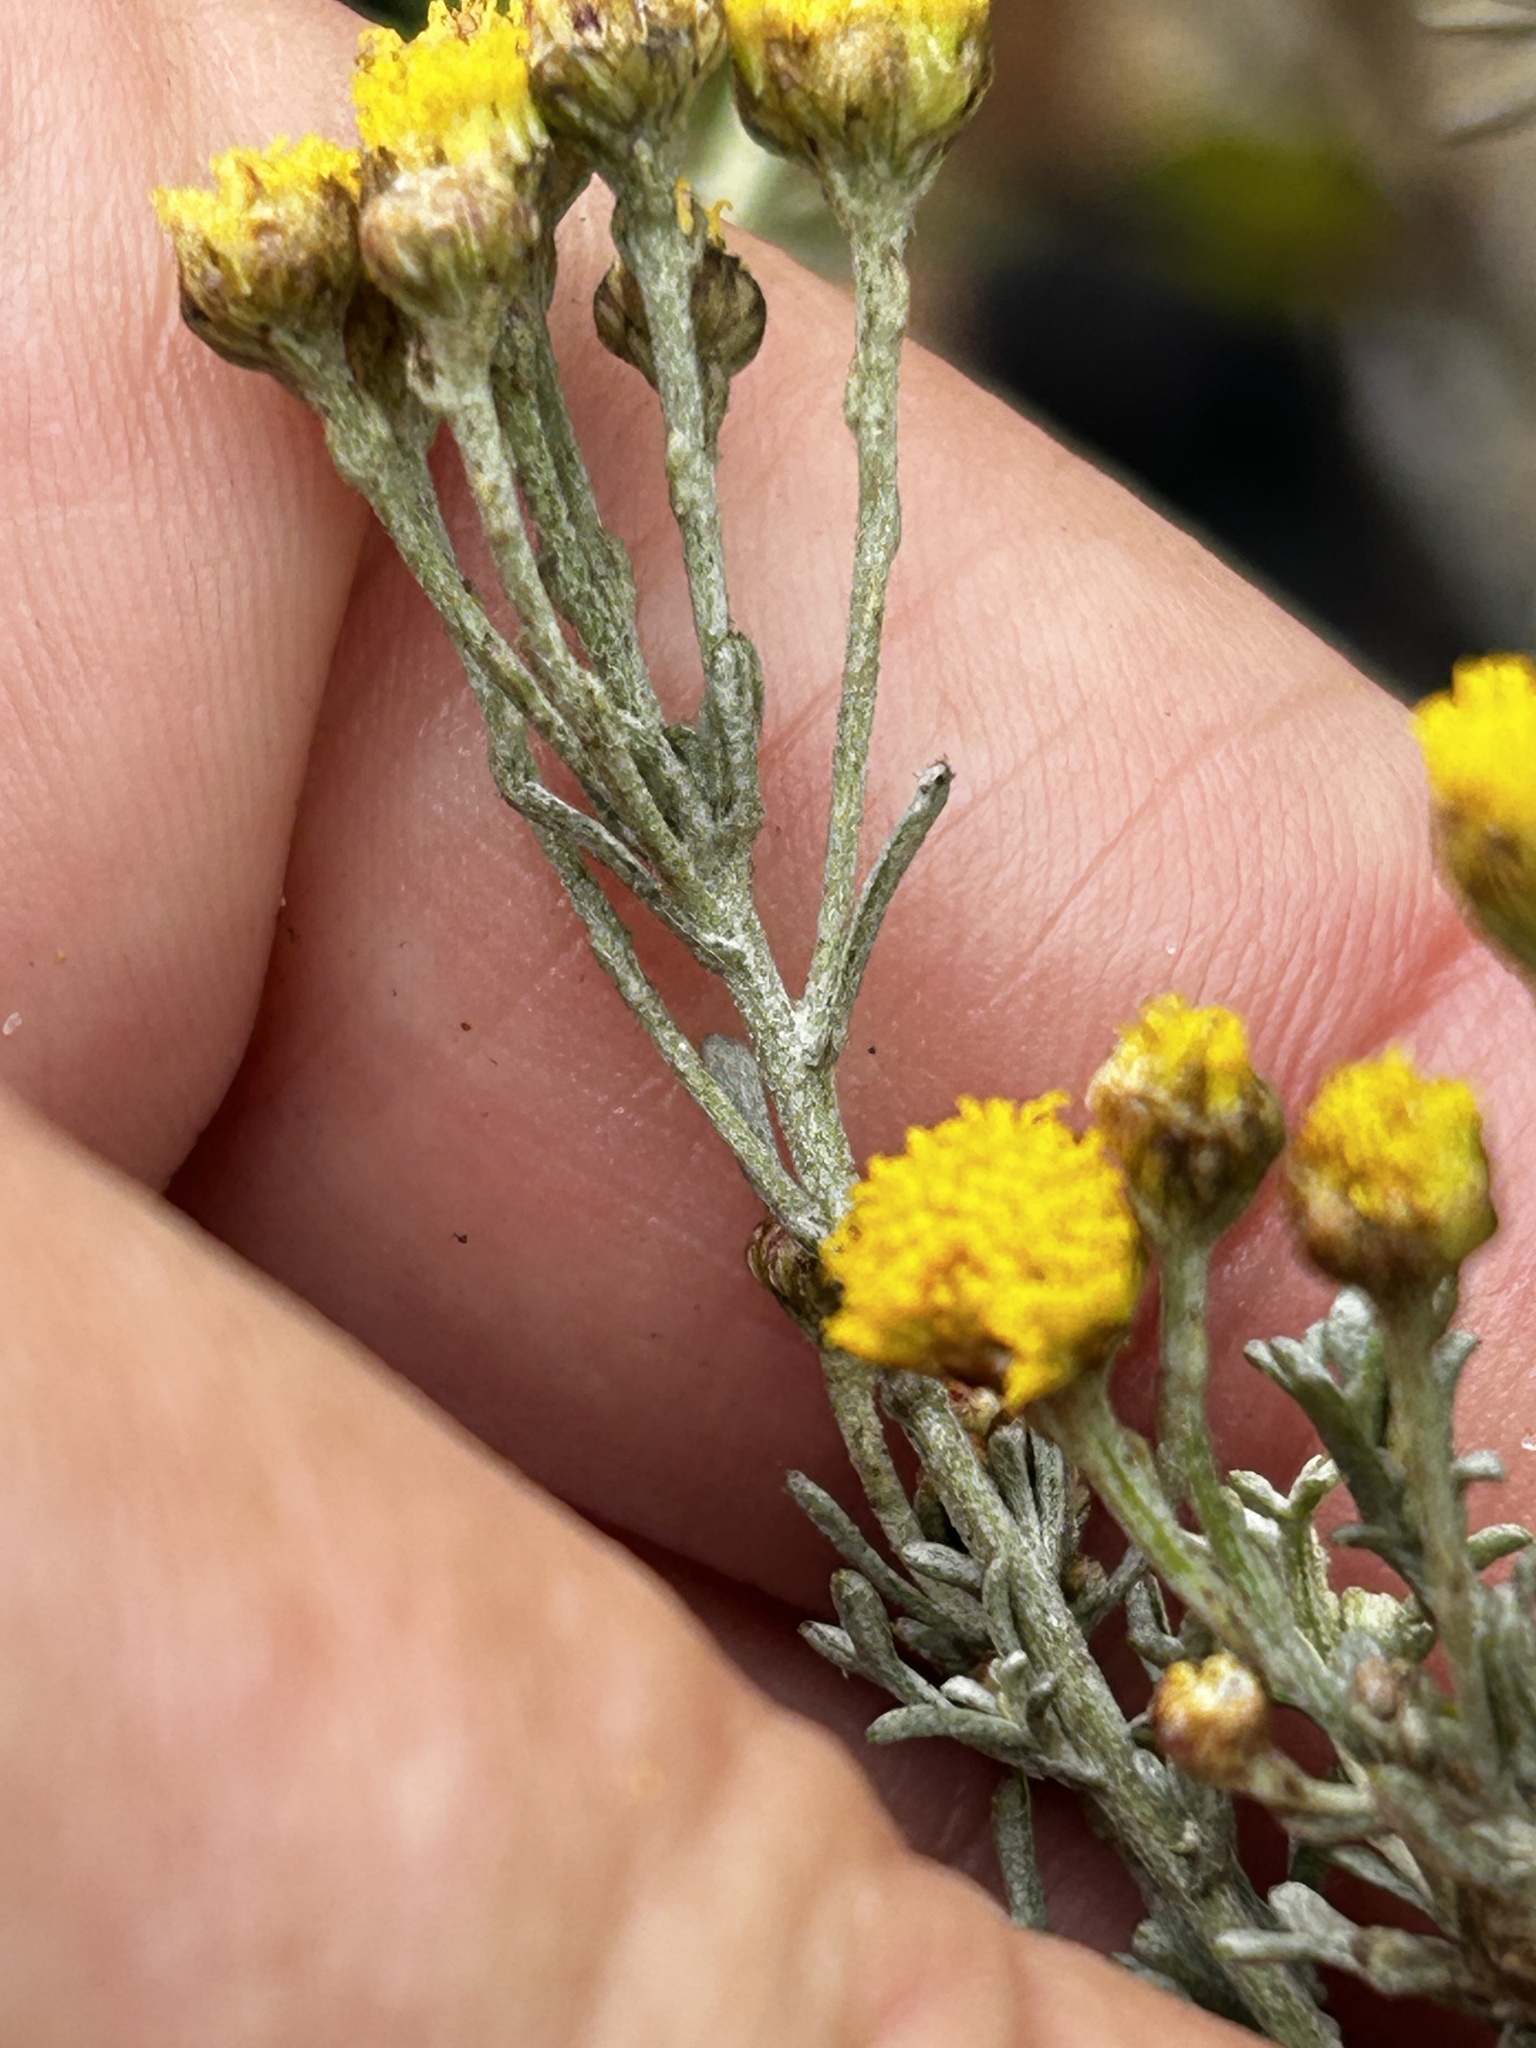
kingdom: Plantae
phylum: Tracheophyta
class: Magnoliopsida
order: Asterales
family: Asteraceae
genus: Pentzia
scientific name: Pentzia trifida
